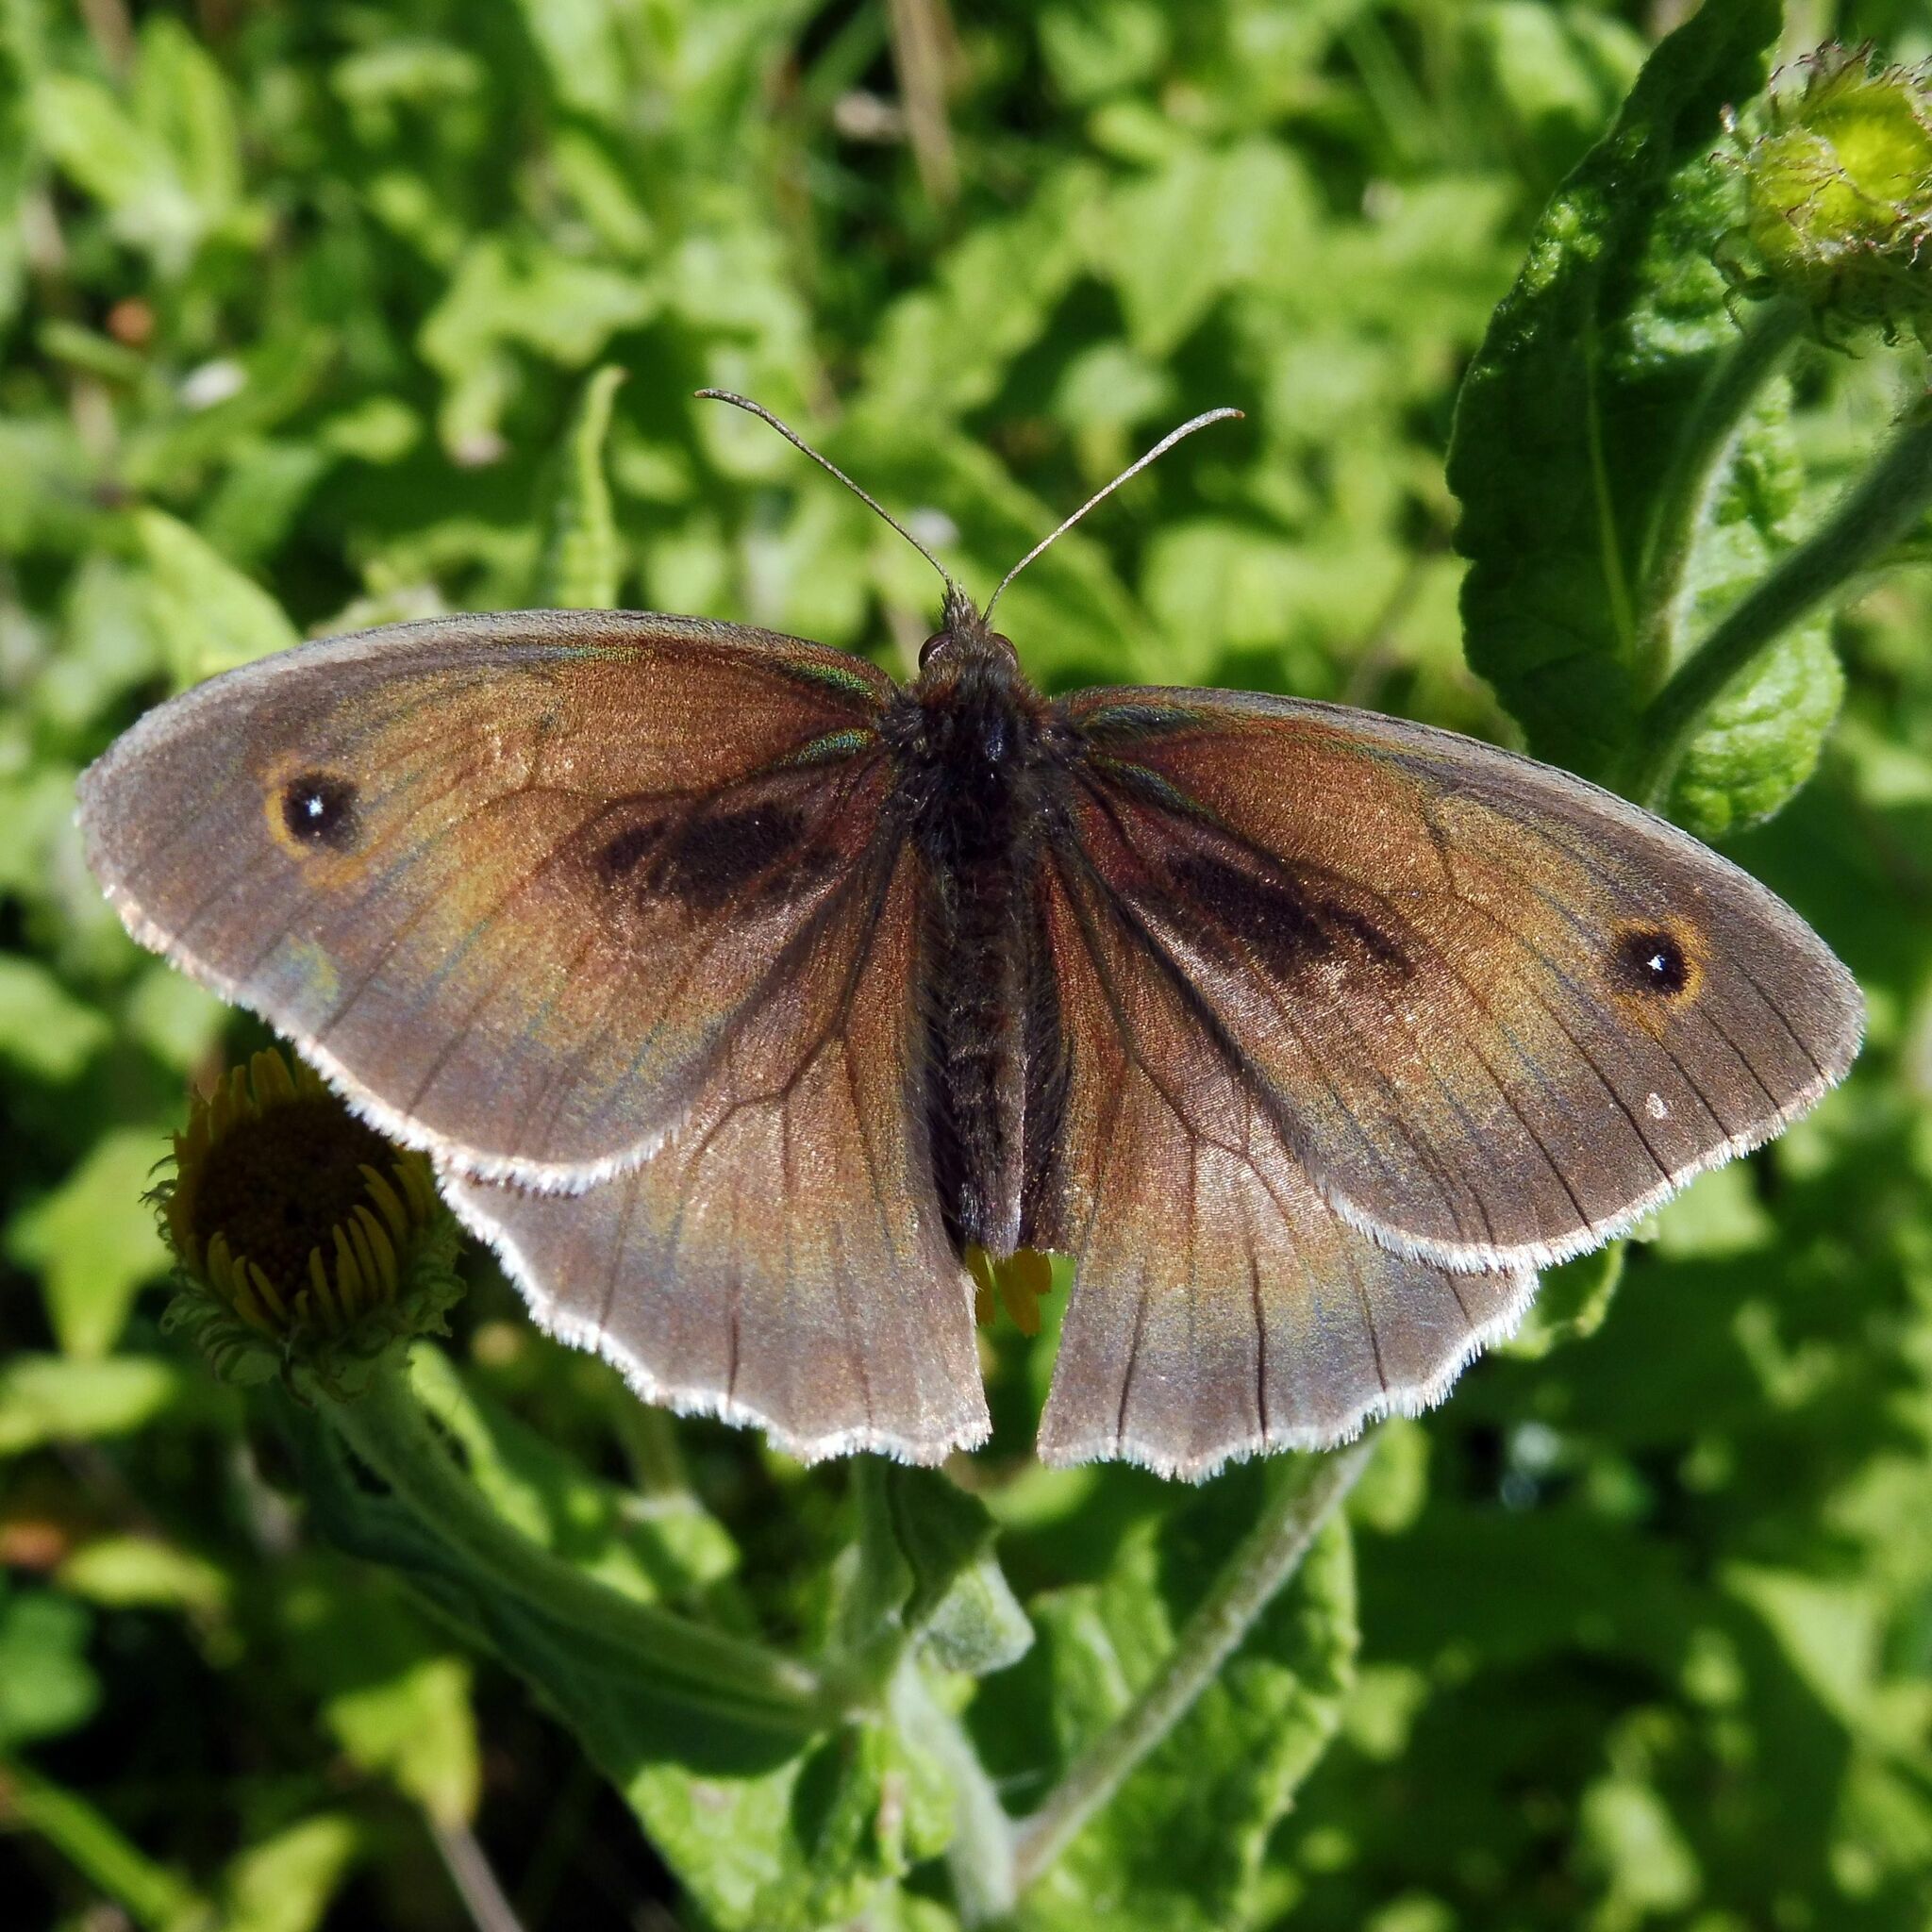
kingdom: Animalia
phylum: Arthropoda
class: Insecta
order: Lepidoptera
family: Nymphalidae
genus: Maniola
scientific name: Maniola jurtina
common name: Meadow brown
